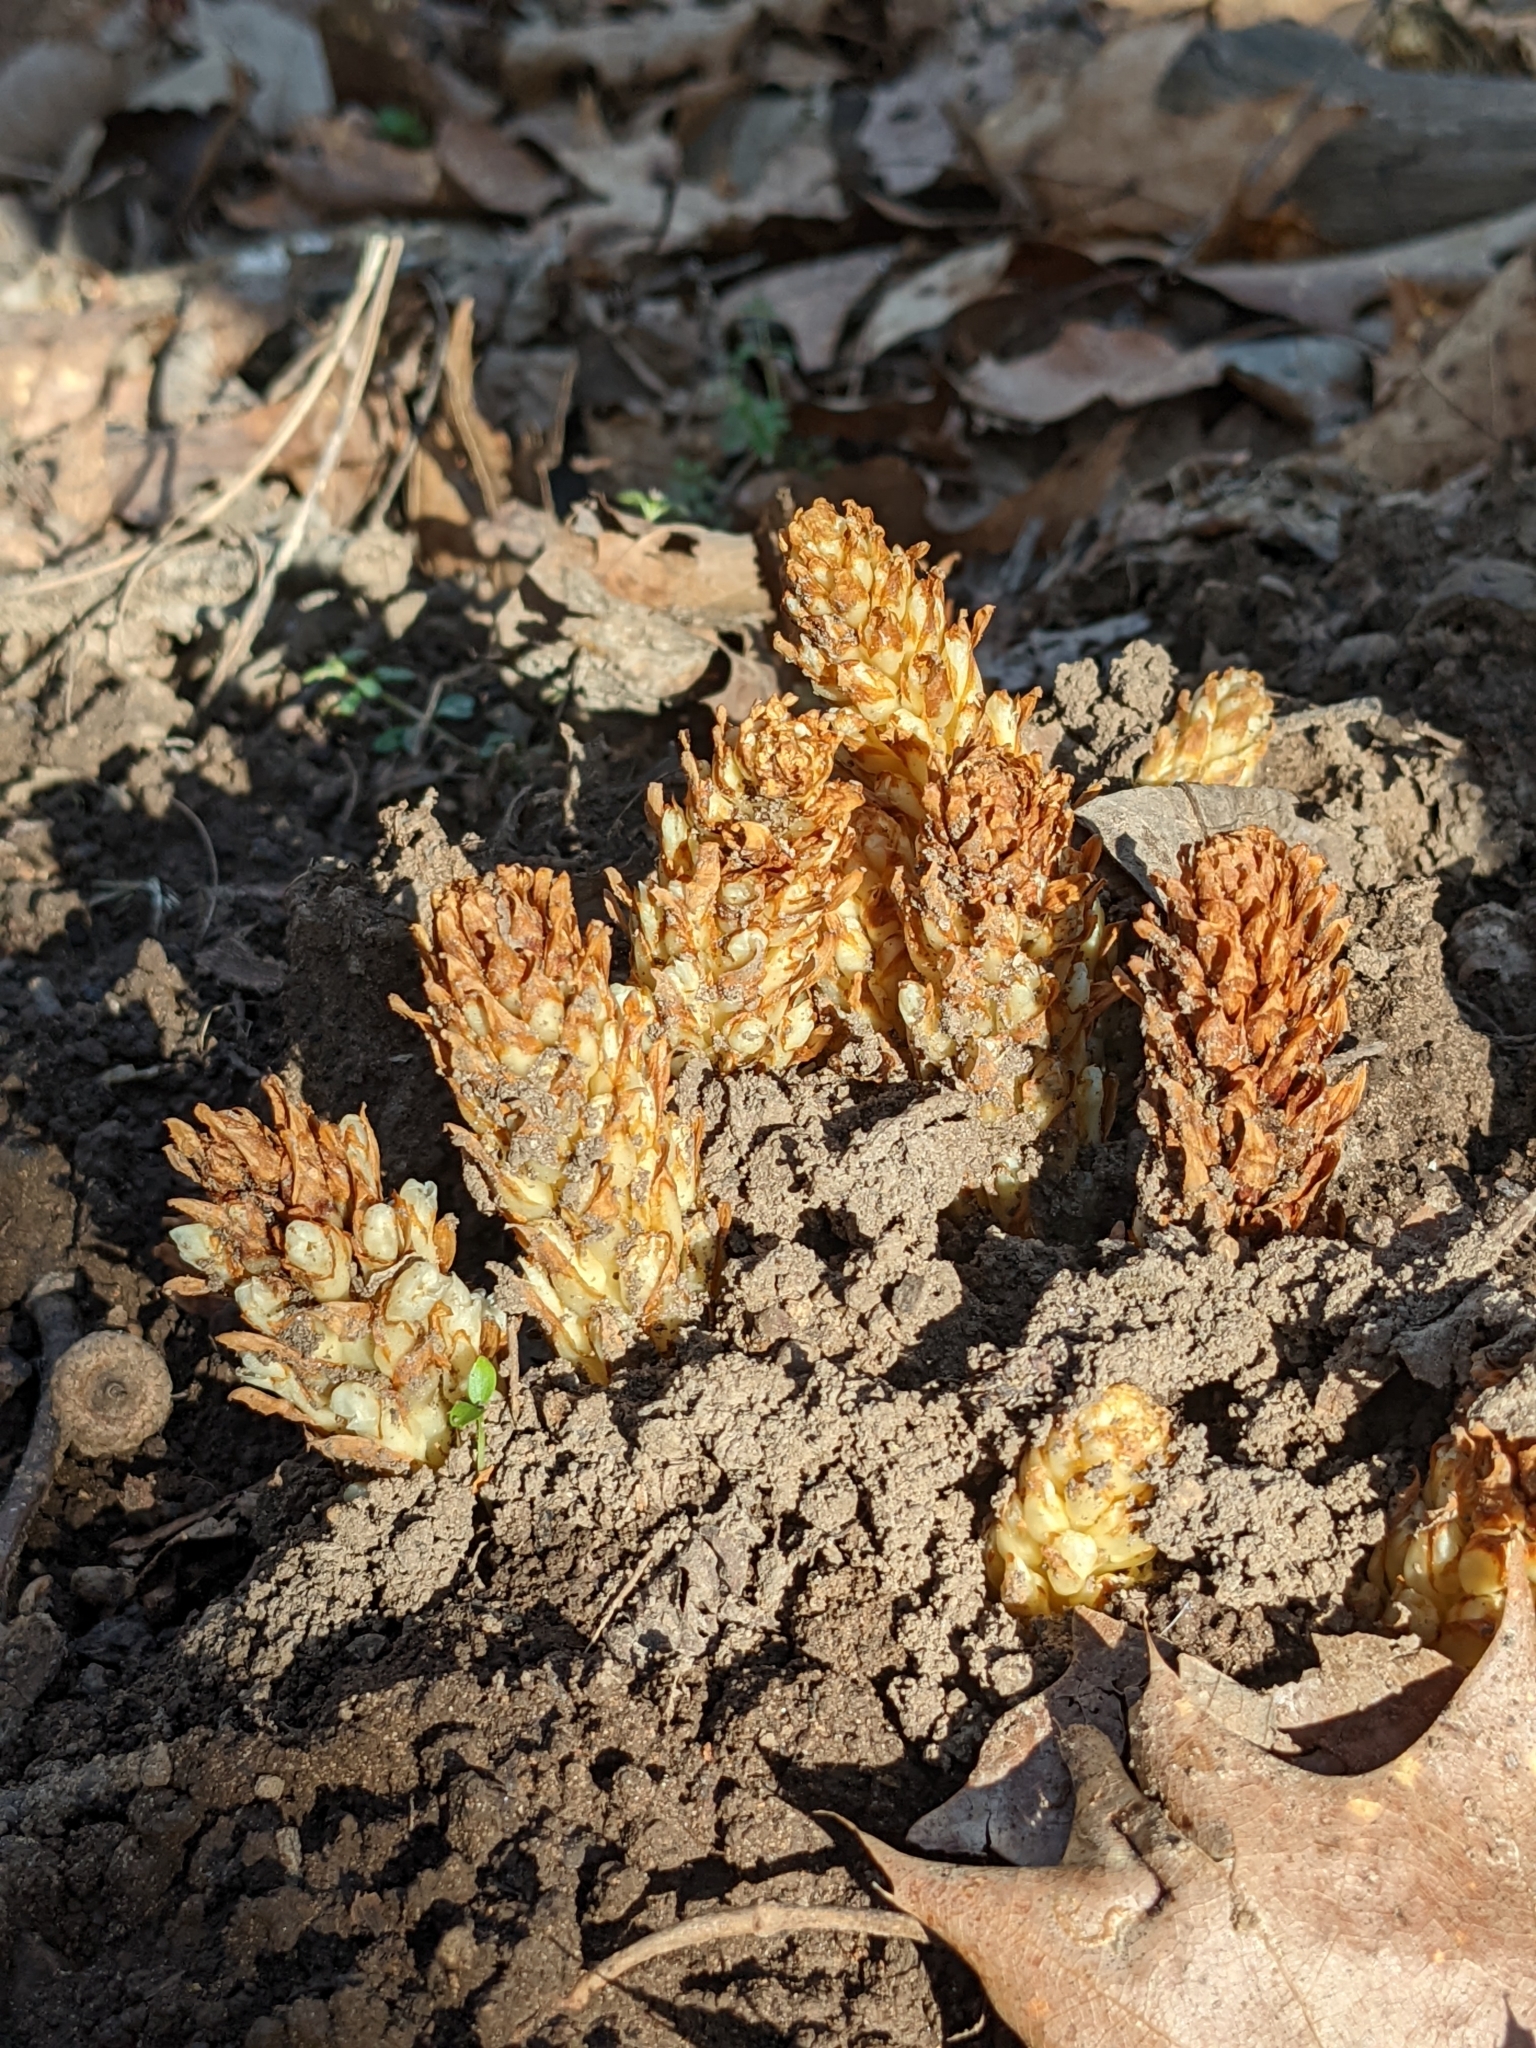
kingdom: Plantae
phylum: Tracheophyta
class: Magnoliopsida
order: Lamiales
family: Orobanchaceae
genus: Conopholis
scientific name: Conopholis americana
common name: American cancer-root
